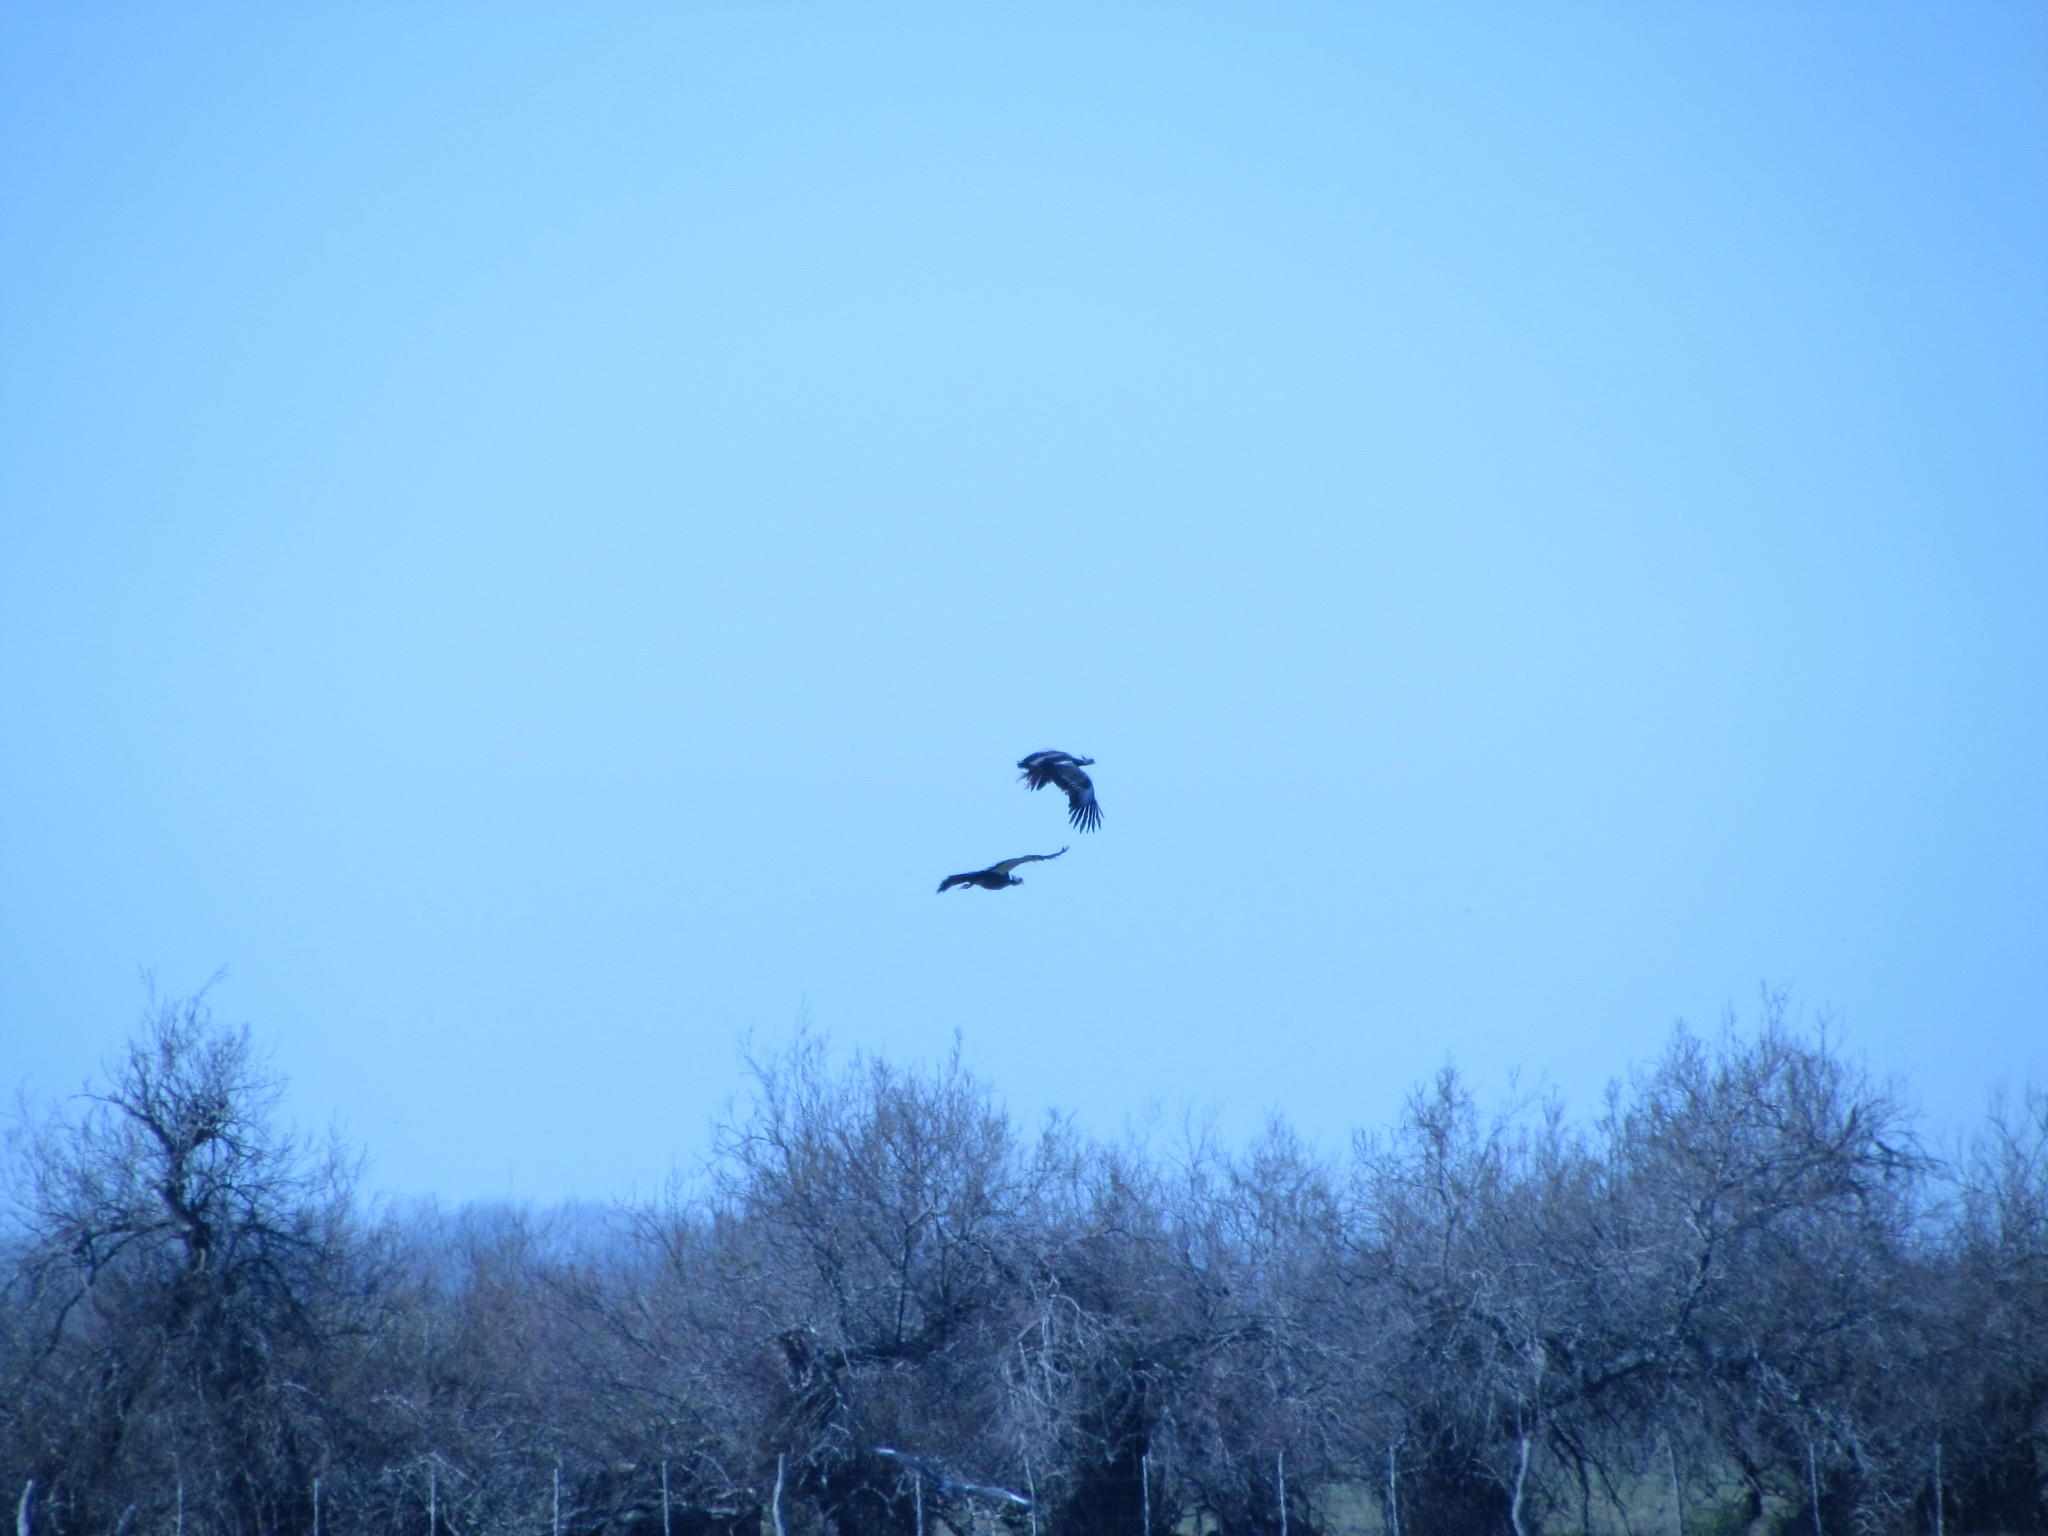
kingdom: Animalia
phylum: Chordata
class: Aves
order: Anseriformes
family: Anhimidae
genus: Chauna
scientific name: Chauna torquata
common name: Southern screamer
